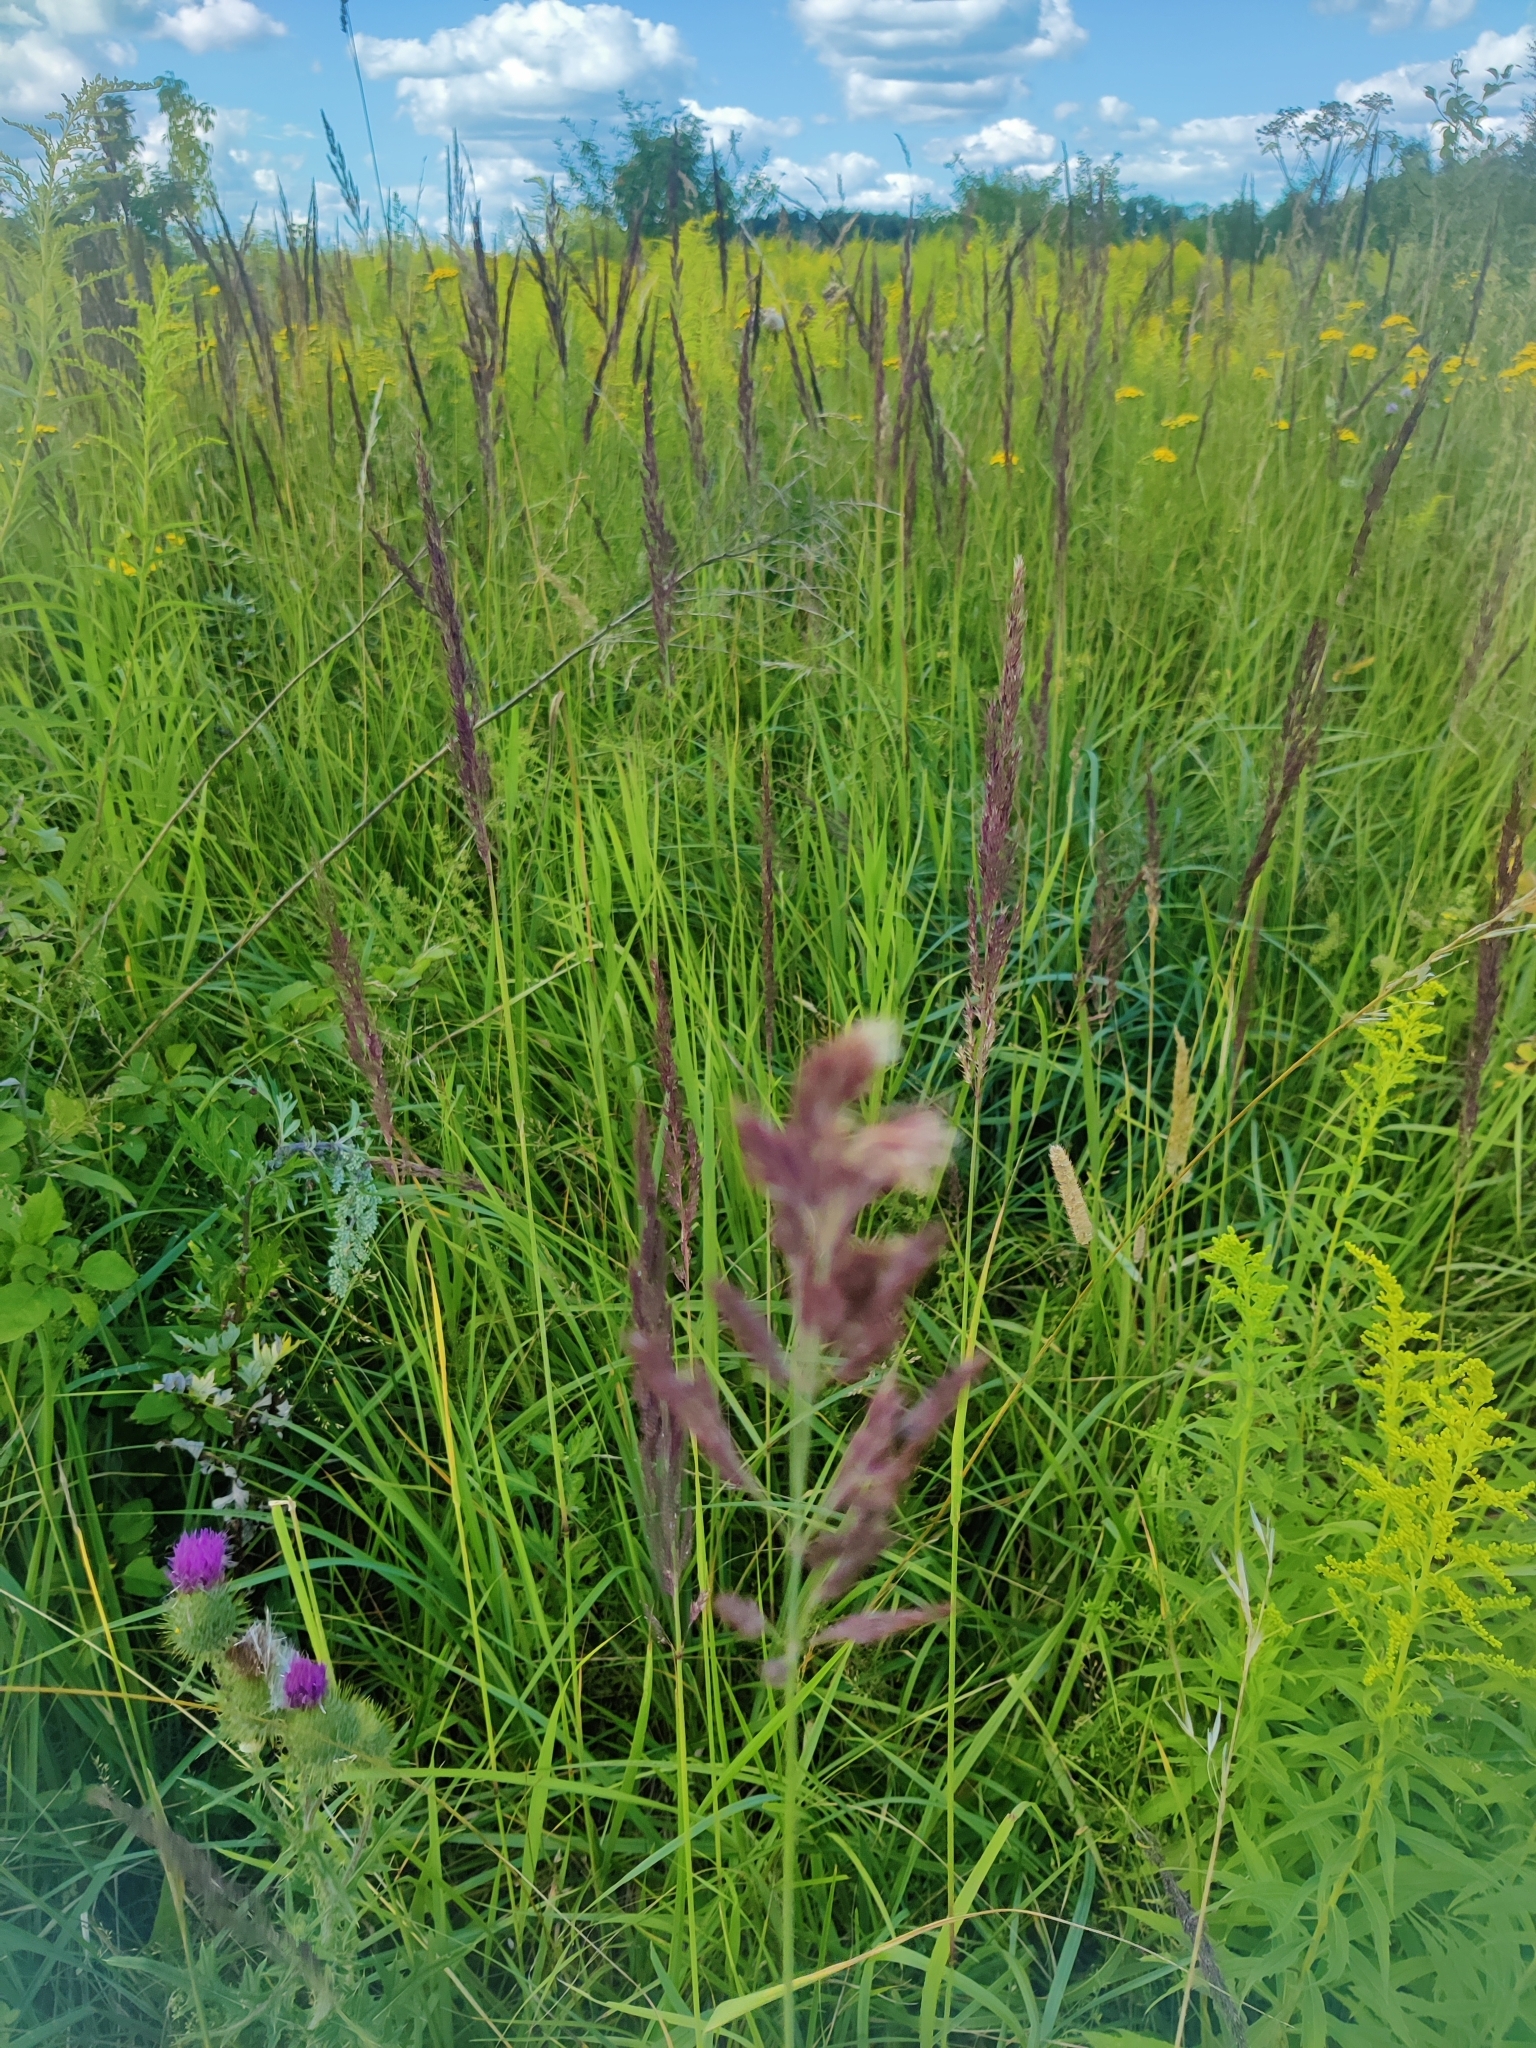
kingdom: Plantae
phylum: Tracheophyta
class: Liliopsida
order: Poales
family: Poaceae
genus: Calamagrostis
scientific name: Calamagrostis epigejos
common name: Wood small-reed
